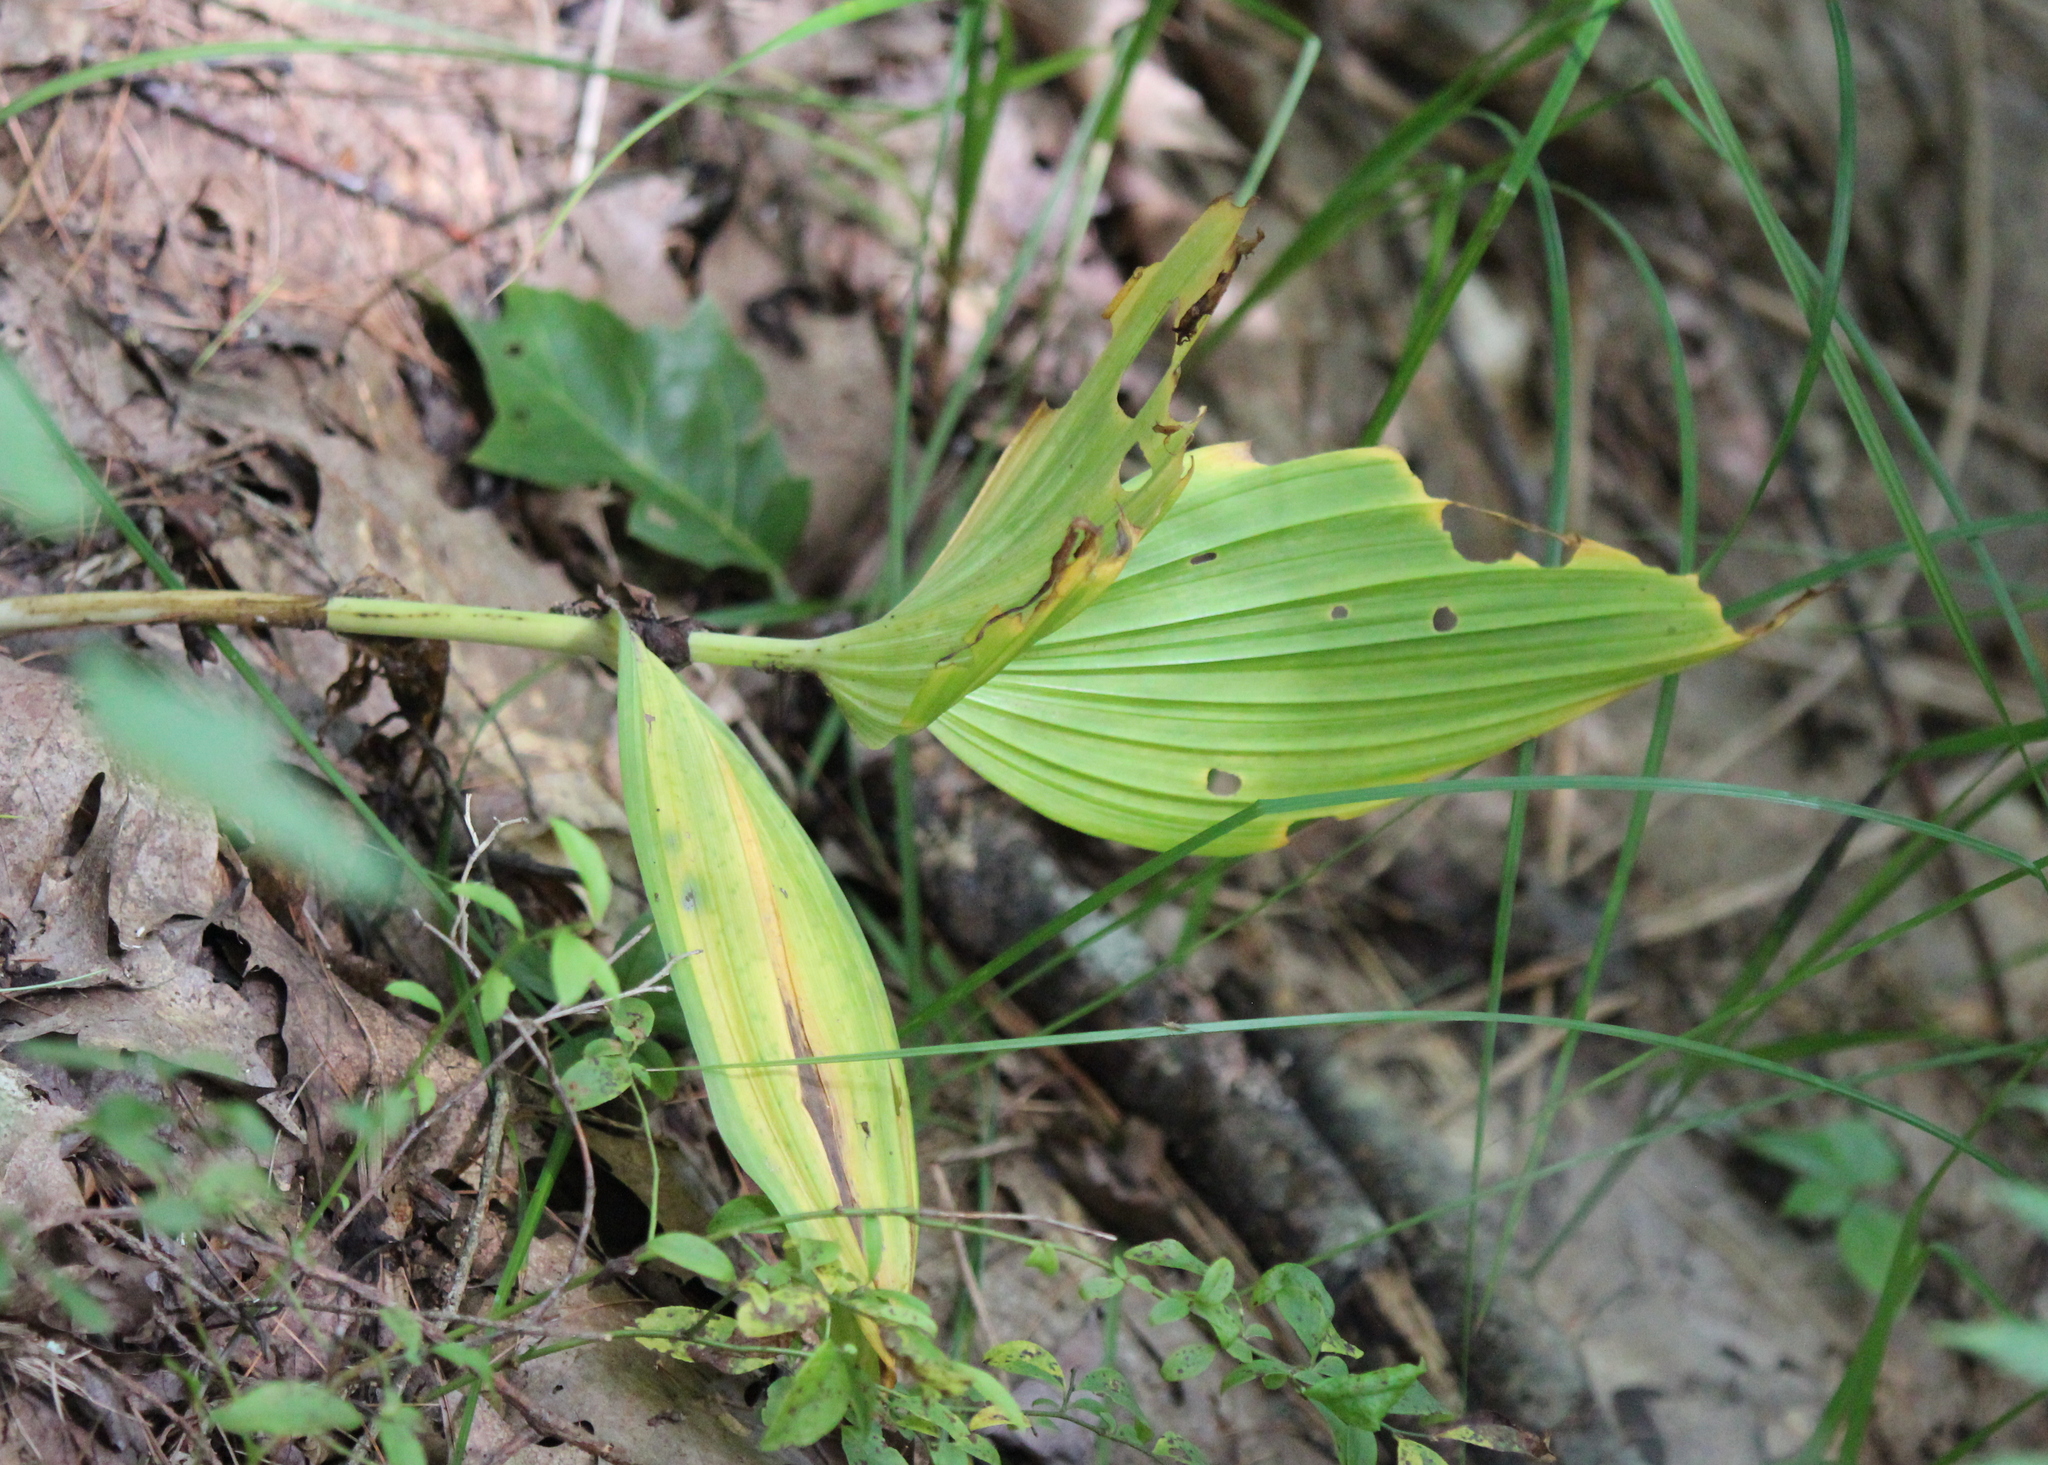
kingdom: Plantae
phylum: Tracheophyta
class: Liliopsida
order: Liliales
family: Melanthiaceae
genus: Veratrum
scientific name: Veratrum viride
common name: American false hellebore
